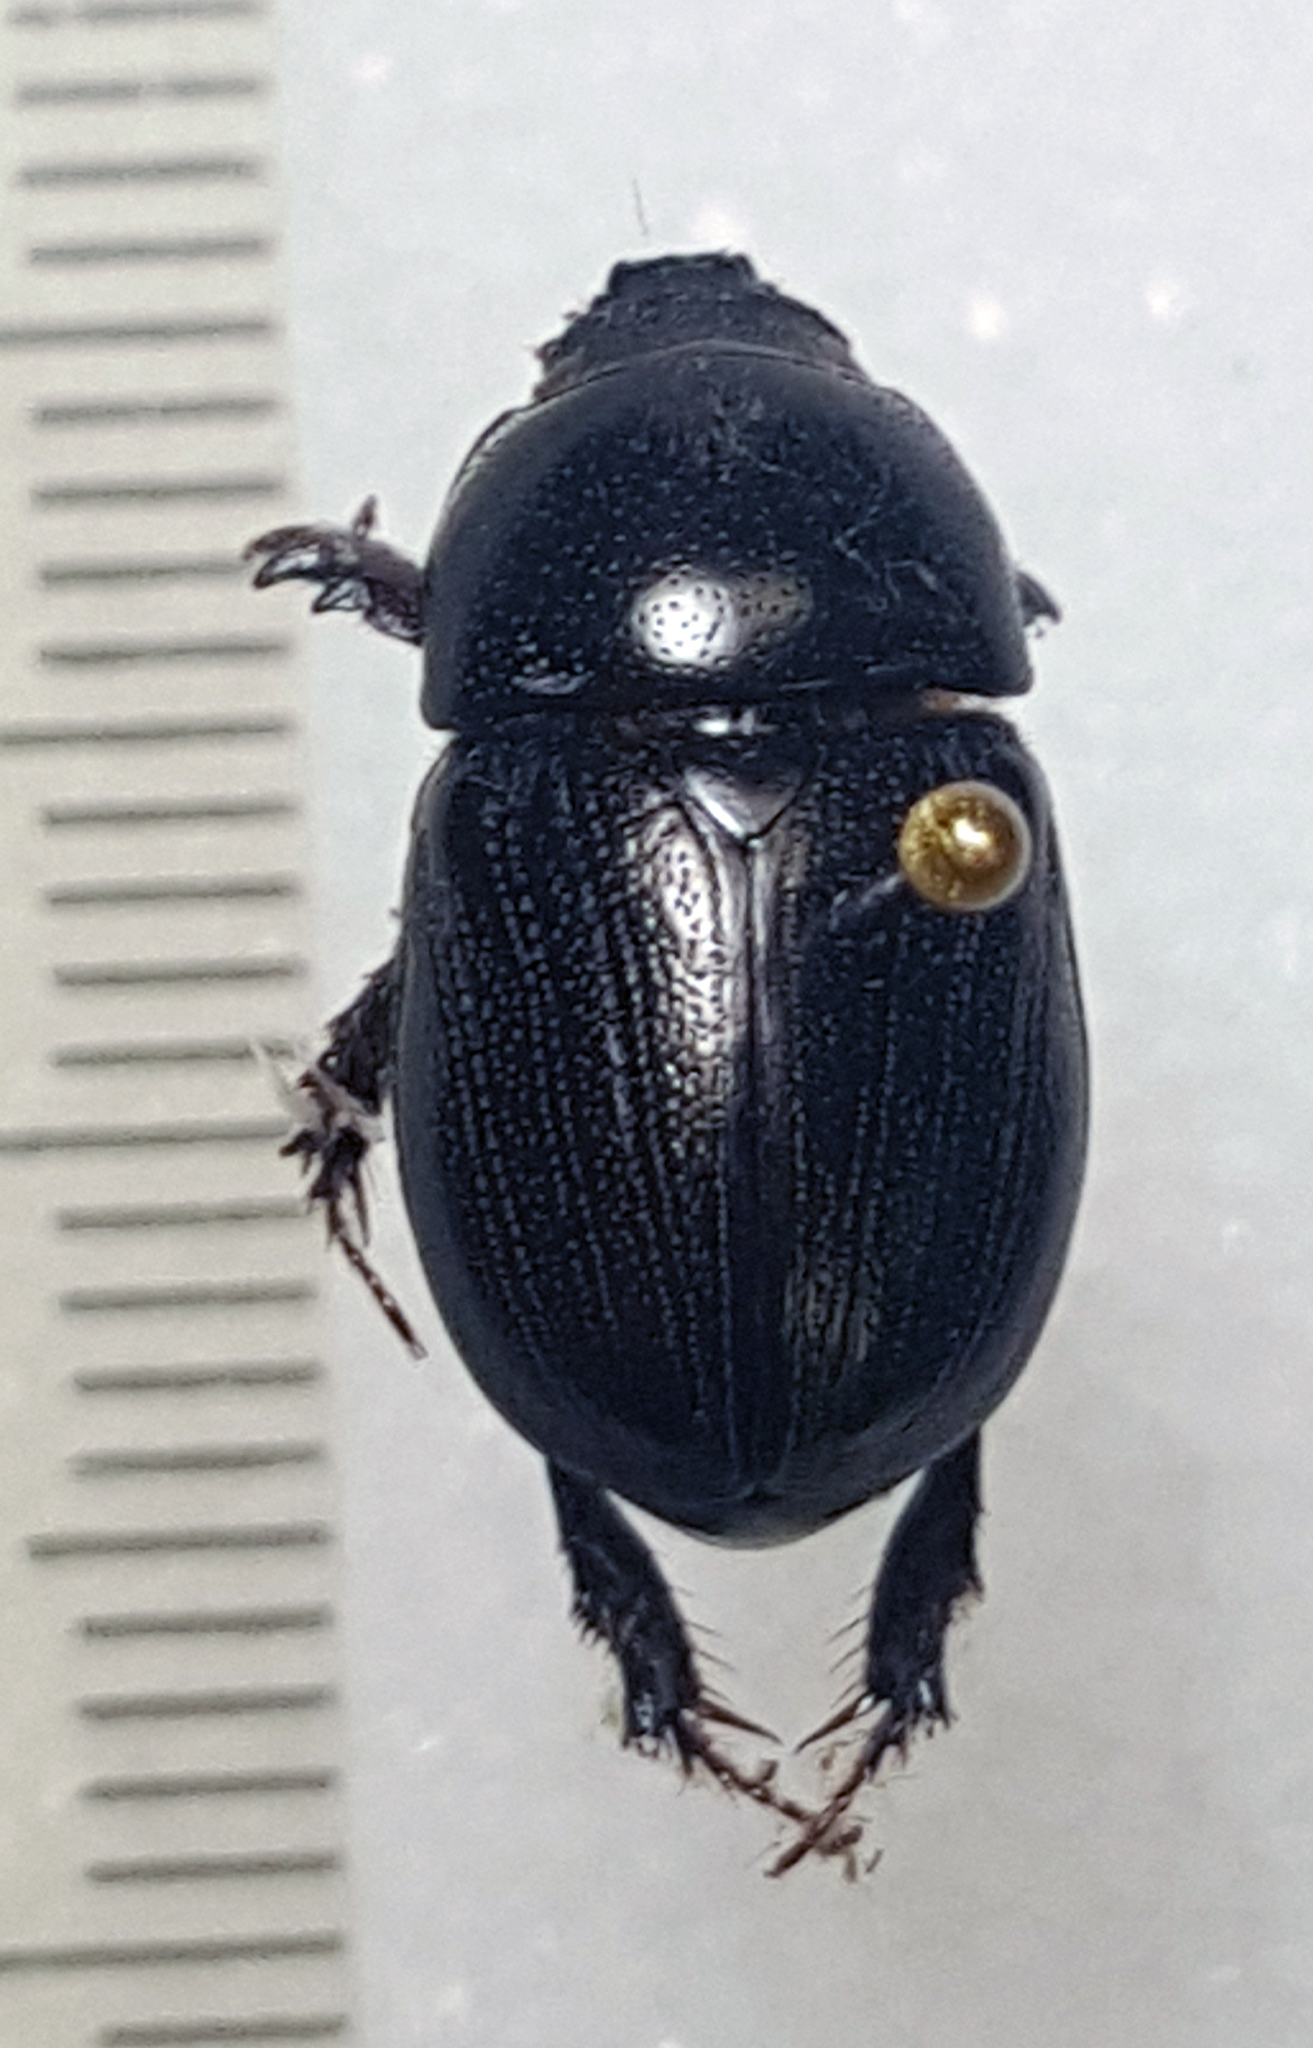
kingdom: Animalia
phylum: Arthropoda
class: Insecta
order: Coleoptera
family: Scarabaeidae
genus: Euetheola
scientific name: Euetheola humilis
